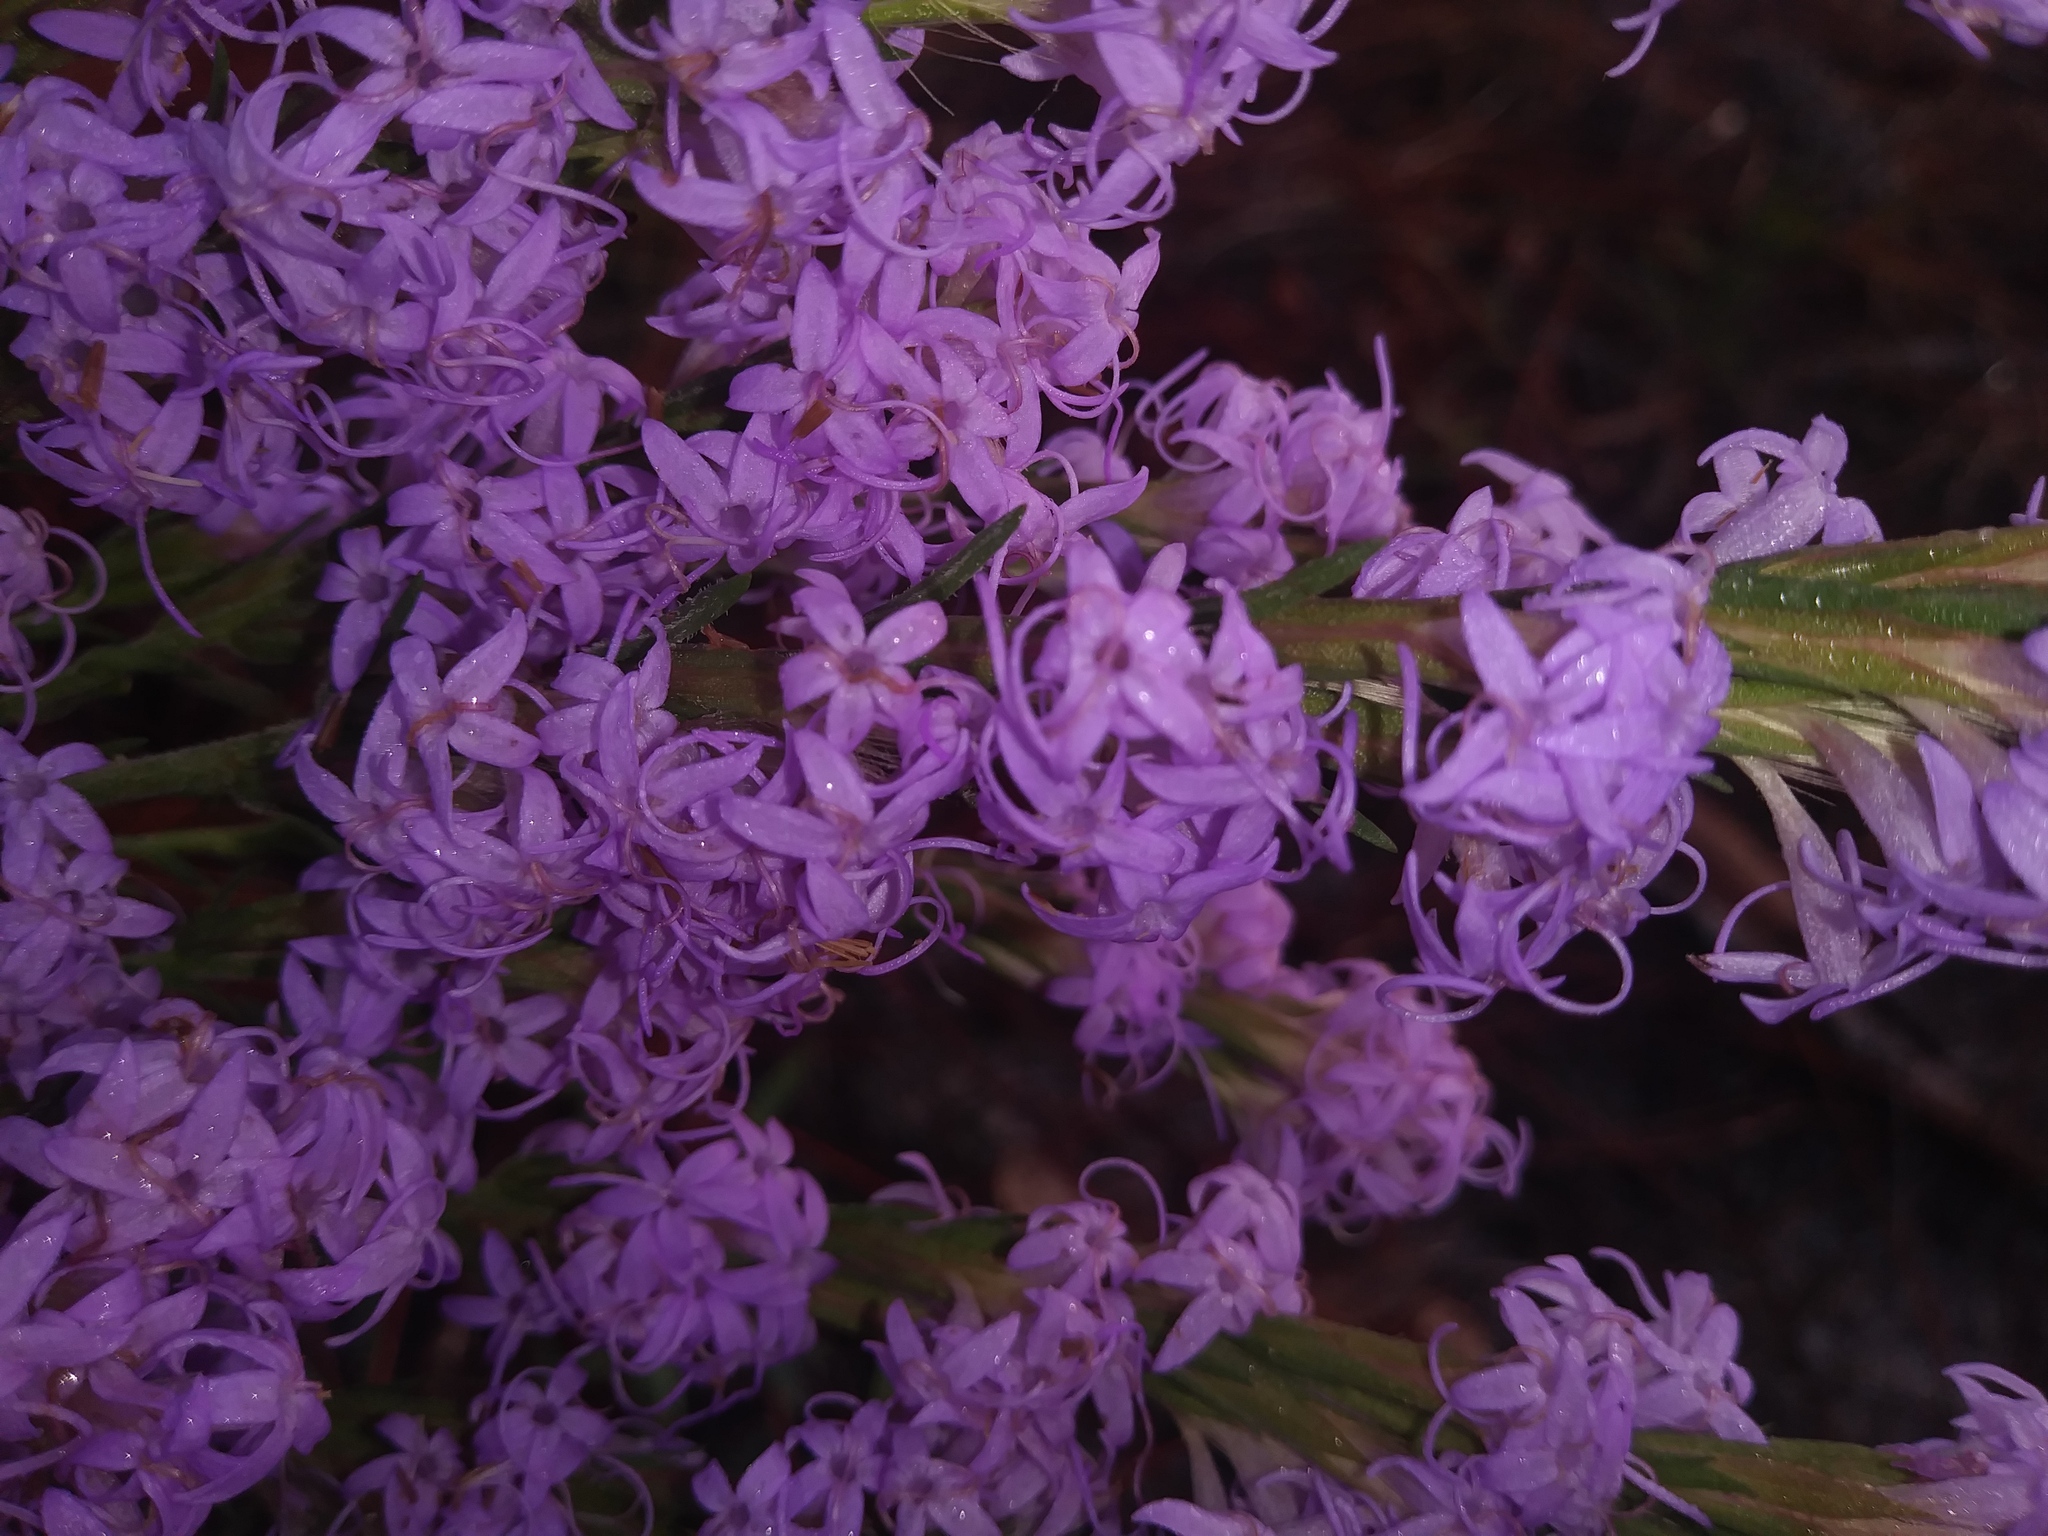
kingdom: Plantae
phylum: Tracheophyta
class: Magnoliopsida
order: Asterales
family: Asteraceae
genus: Liatris
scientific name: Liatris chapmanii
